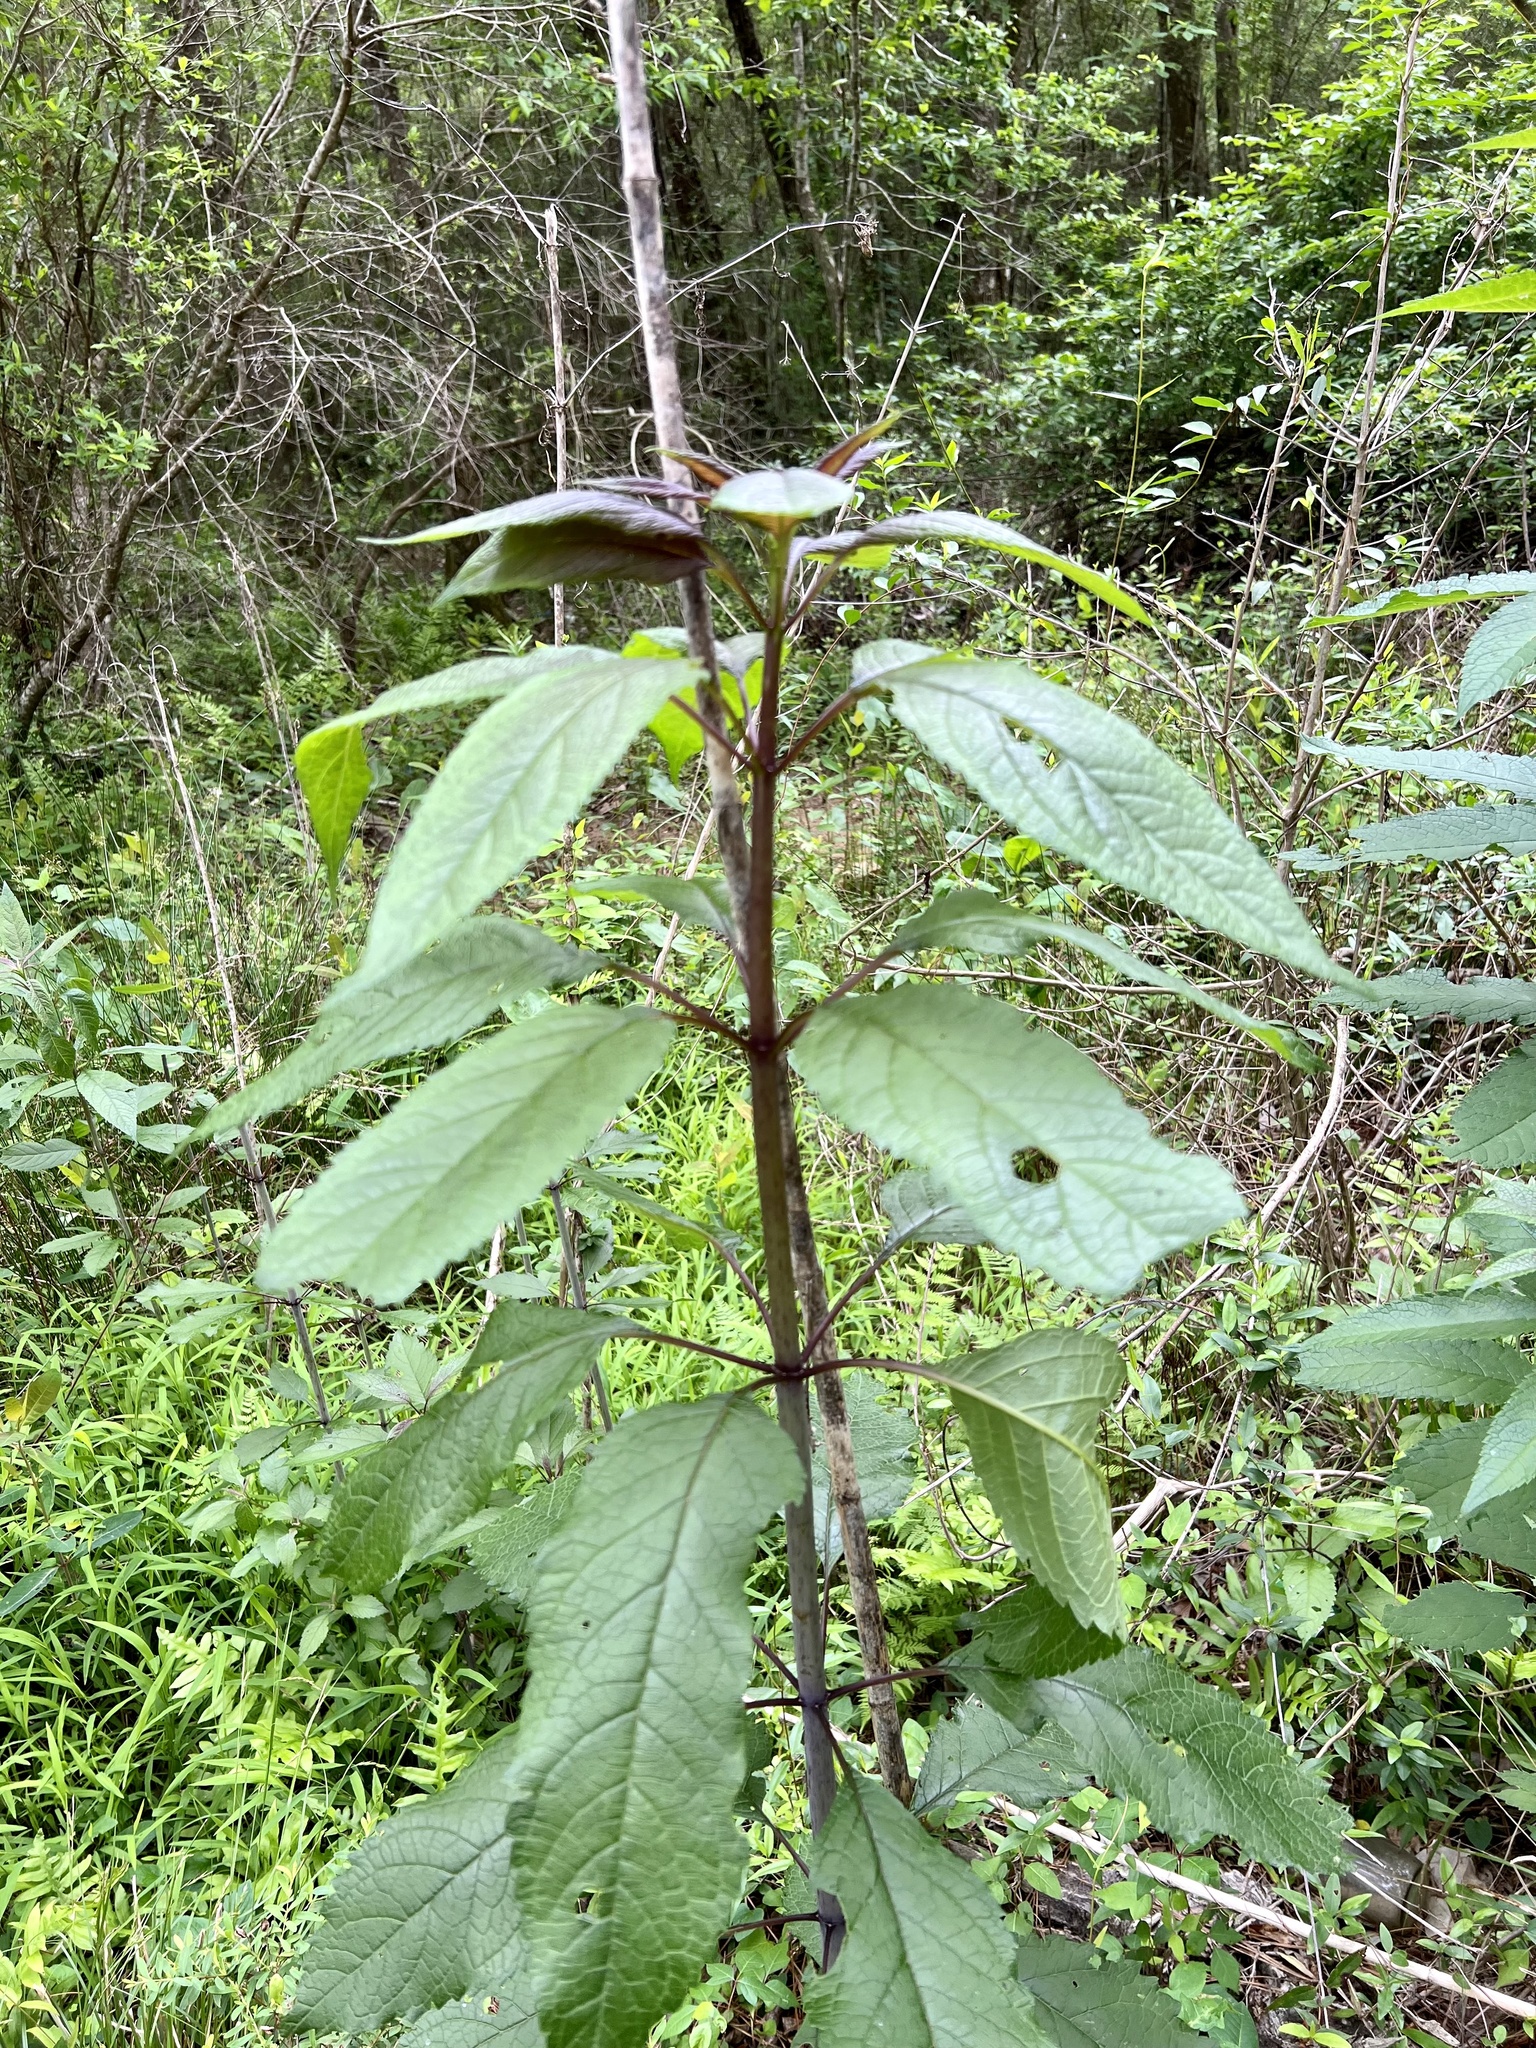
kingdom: Plantae
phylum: Tracheophyta
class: Magnoliopsida
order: Asterales
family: Asteraceae
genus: Eutrochium
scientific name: Eutrochium fistulosum
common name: Trumpetweed
